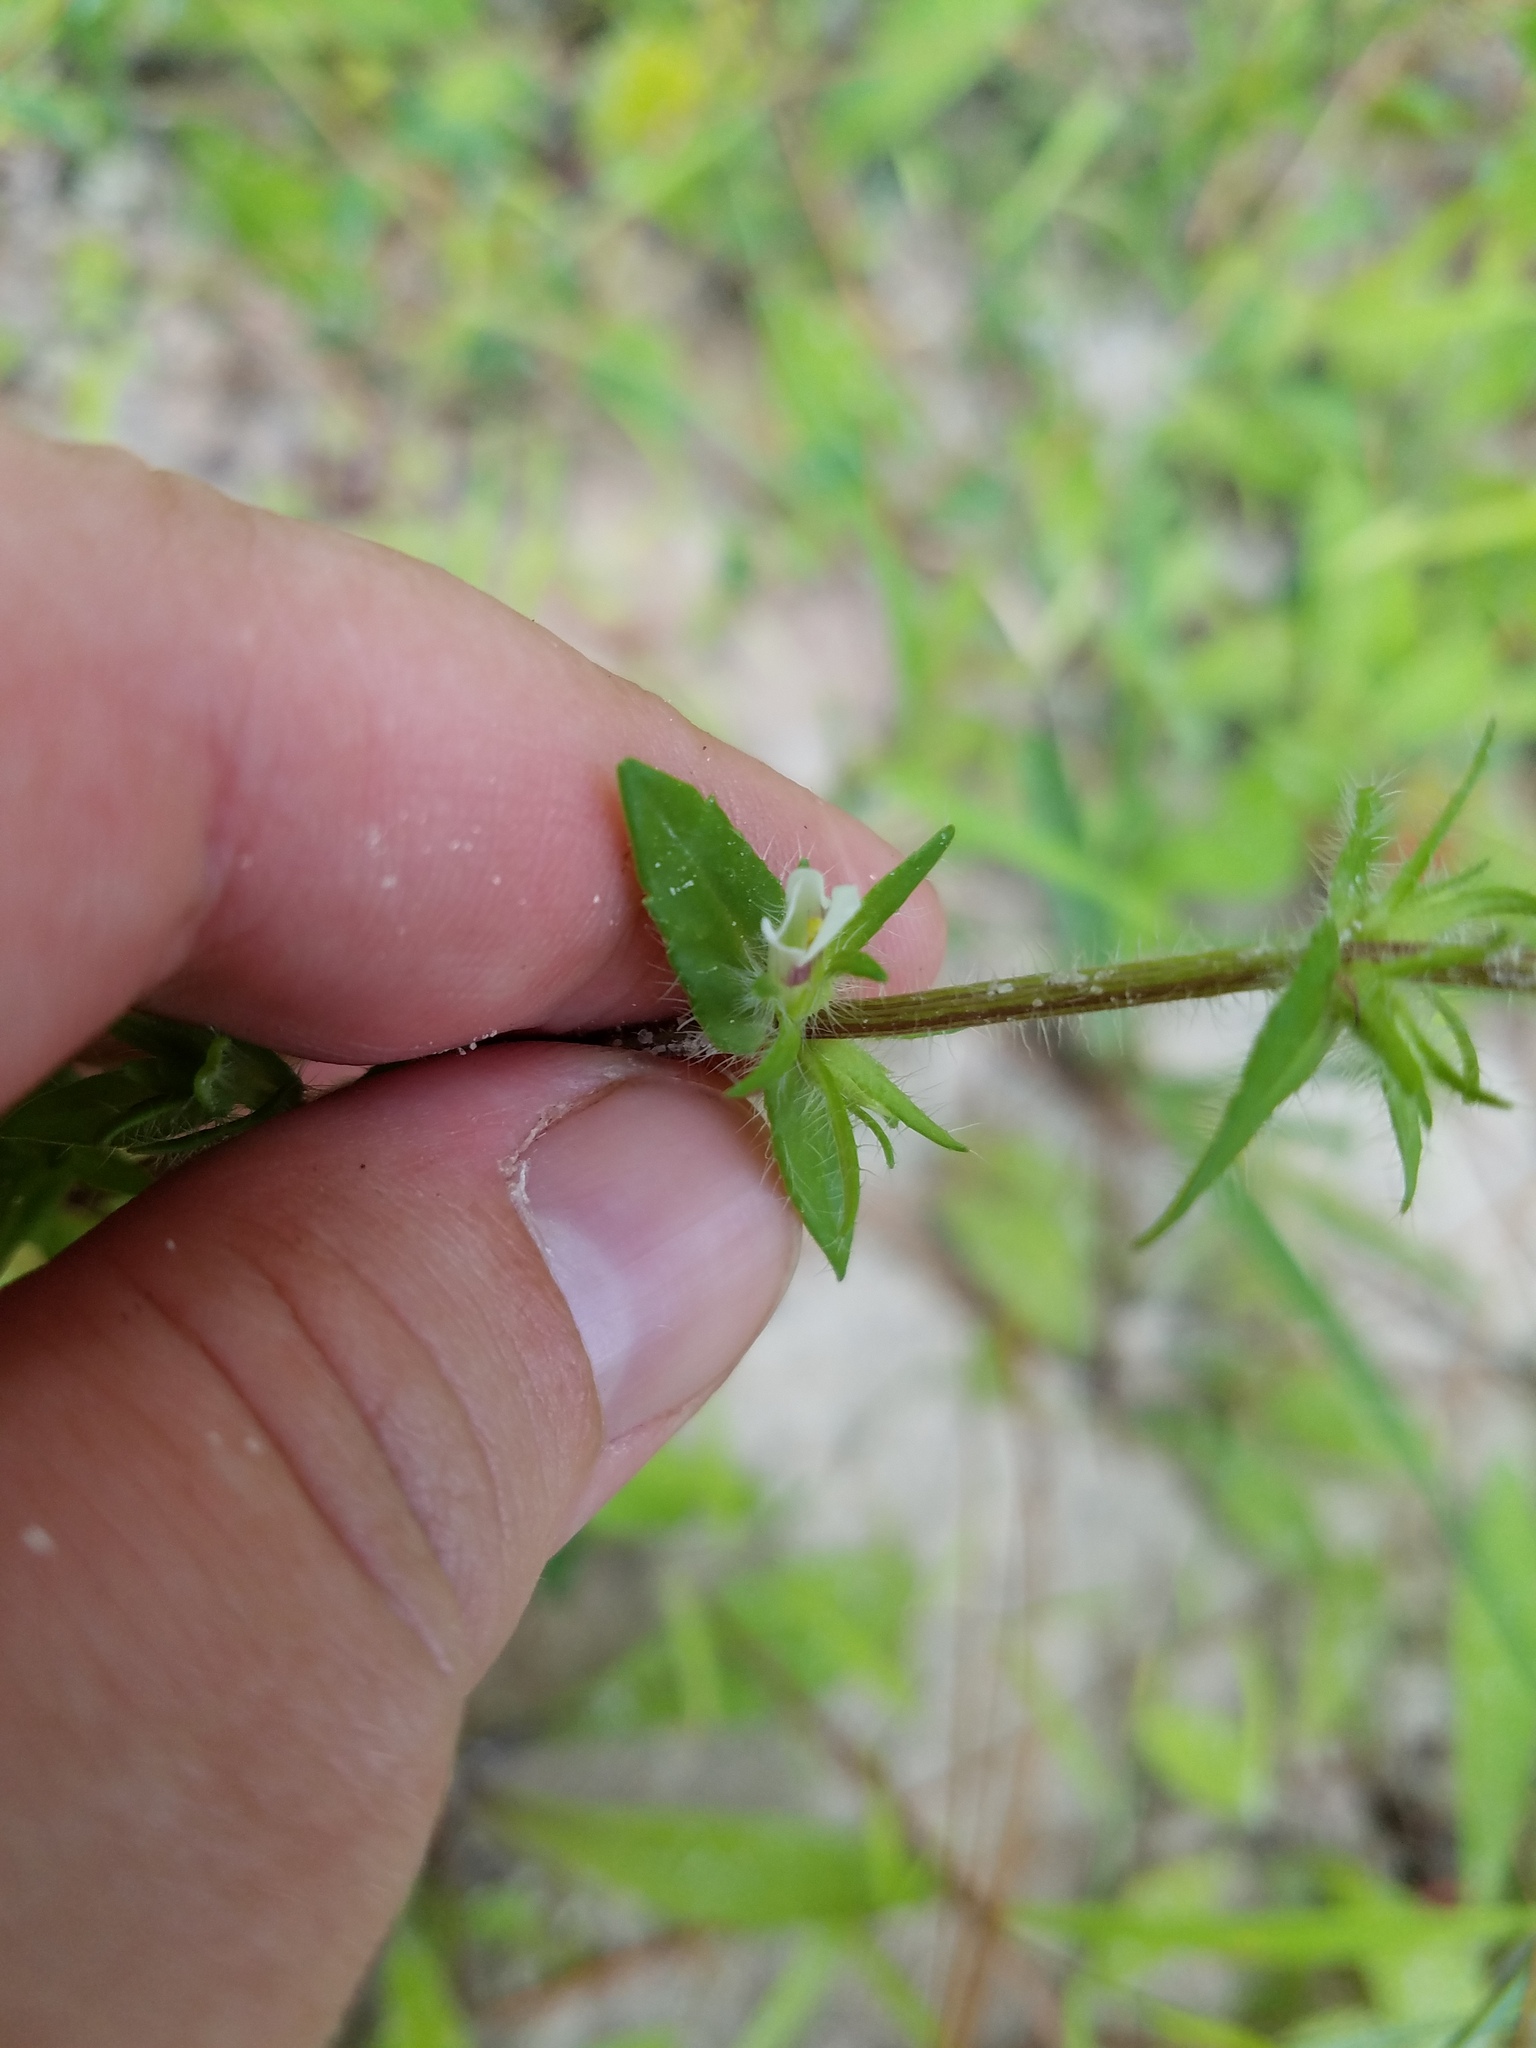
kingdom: Plantae
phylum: Tracheophyta
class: Magnoliopsida
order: Lamiales
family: Plantaginaceae
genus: Gratiola
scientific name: Gratiola pilosa
